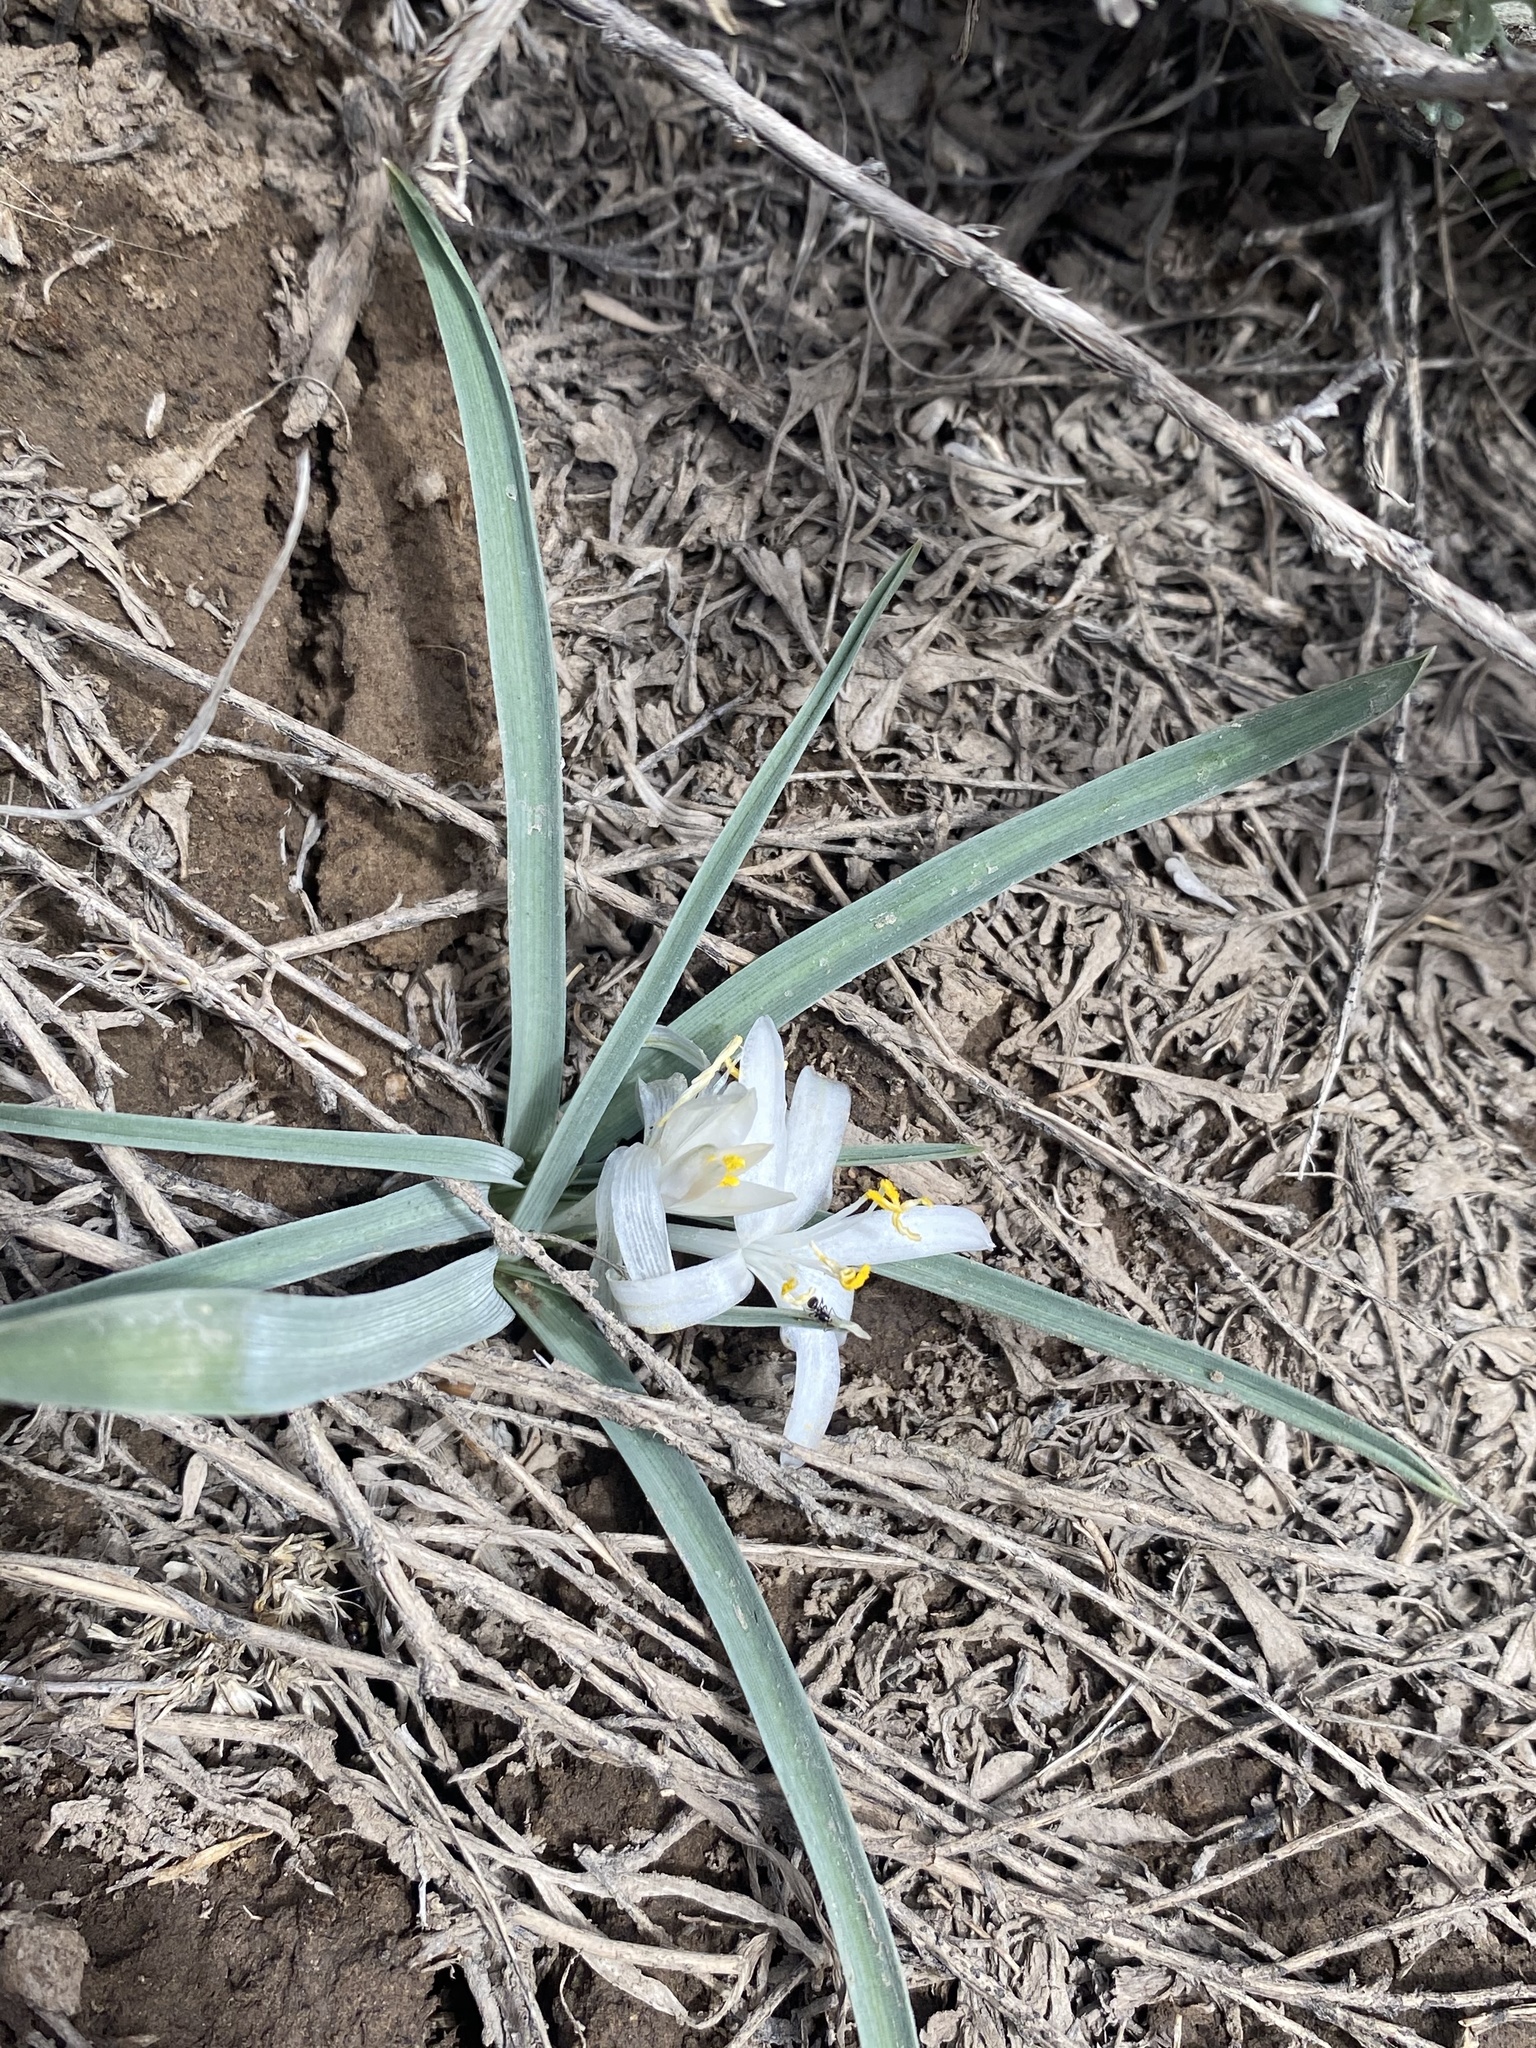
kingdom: Plantae
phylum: Tracheophyta
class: Liliopsida
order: Asparagales
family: Asparagaceae
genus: Leucocrinum
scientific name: Leucocrinum montanum
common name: Mountain-lily
